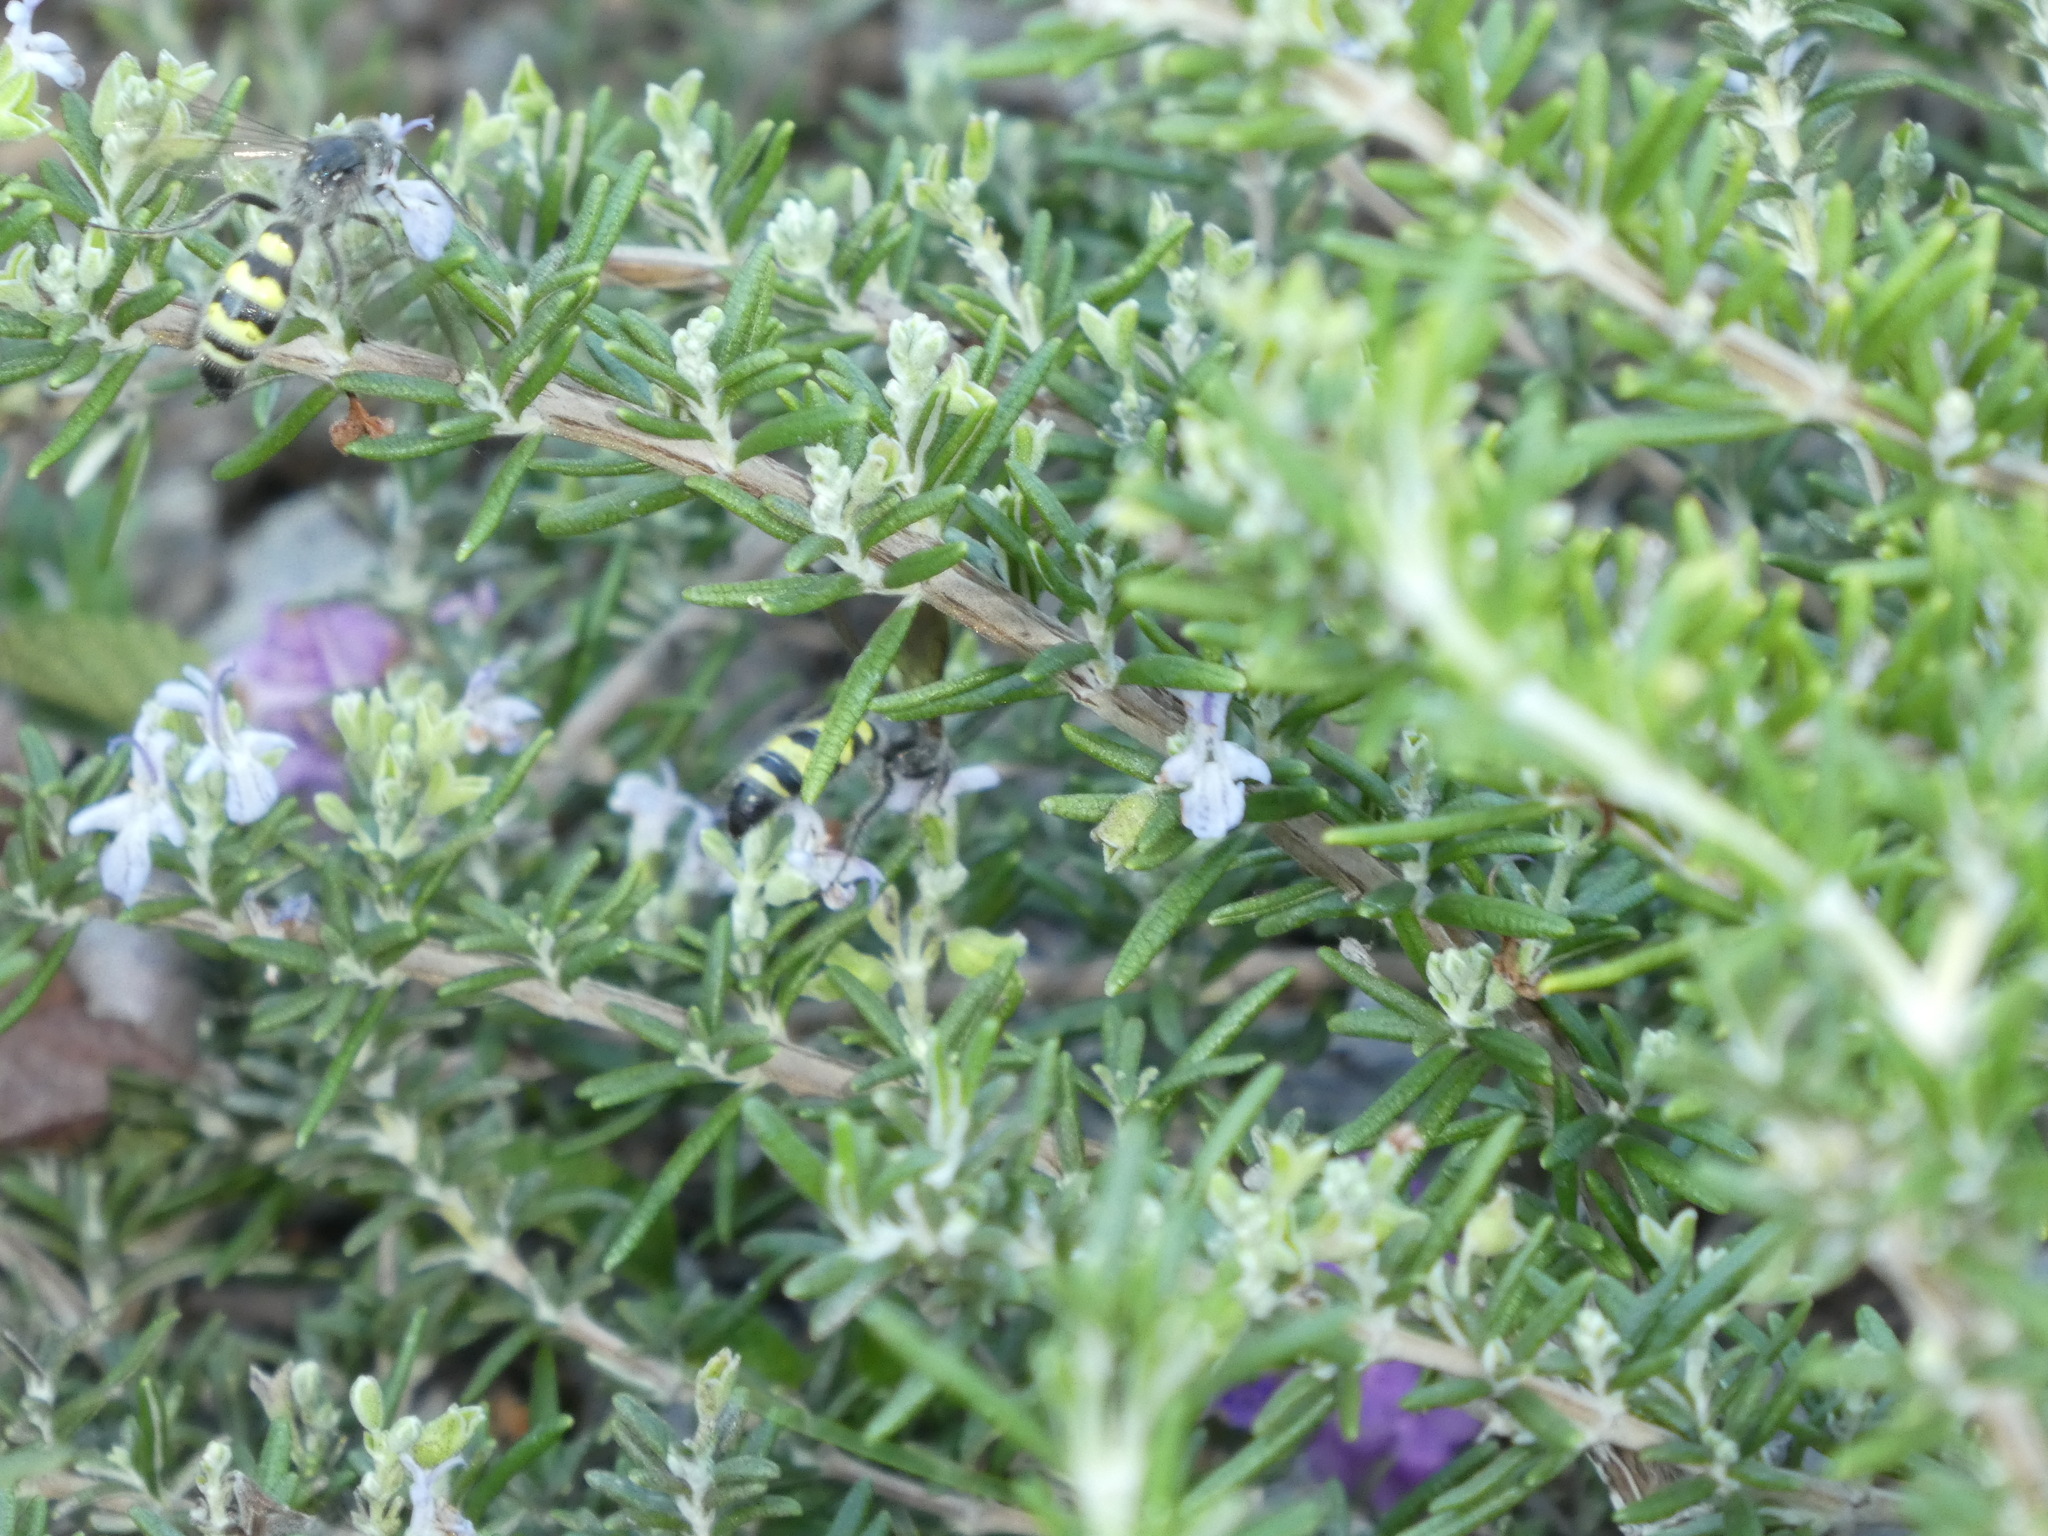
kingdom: Animalia
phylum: Arthropoda
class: Insecta
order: Hymenoptera
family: Scoliidae
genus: Dielis
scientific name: Dielis tolteca
